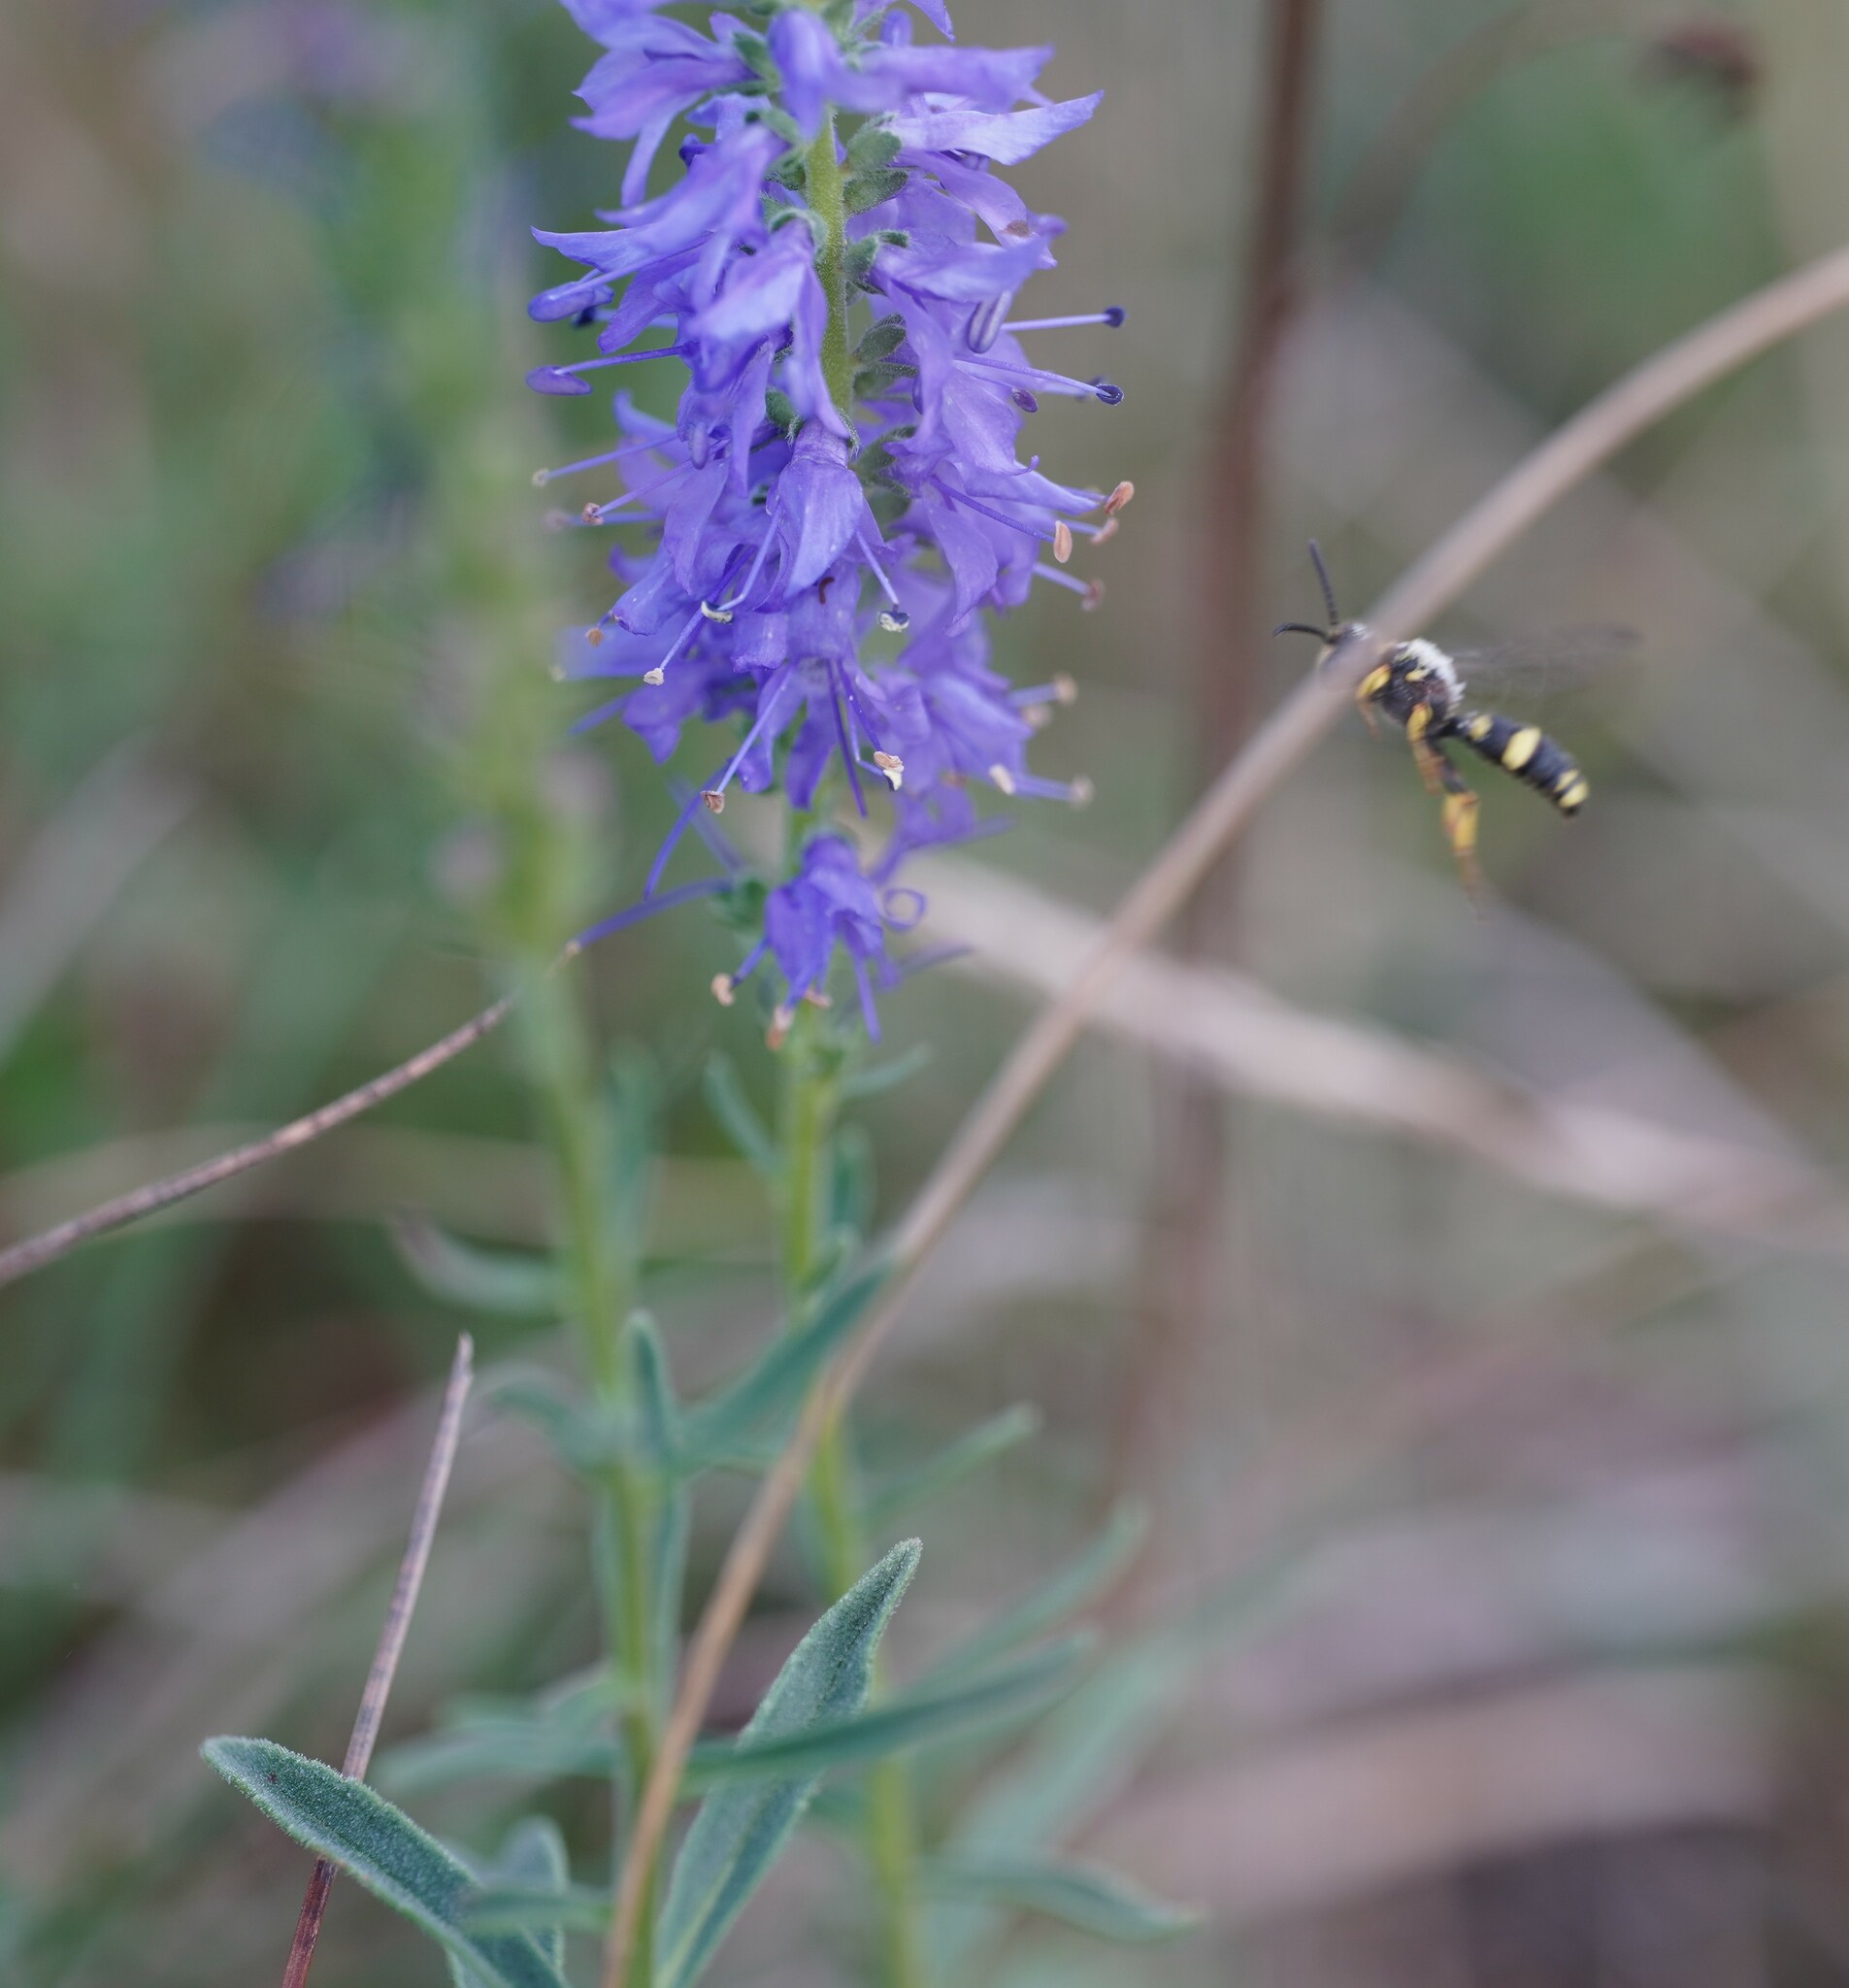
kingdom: Plantae
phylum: Tracheophyta
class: Magnoliopsida
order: Lamiales
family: Plantaginaceae
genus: Veronica
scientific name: Veronica spicata
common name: Spiked speedwell
